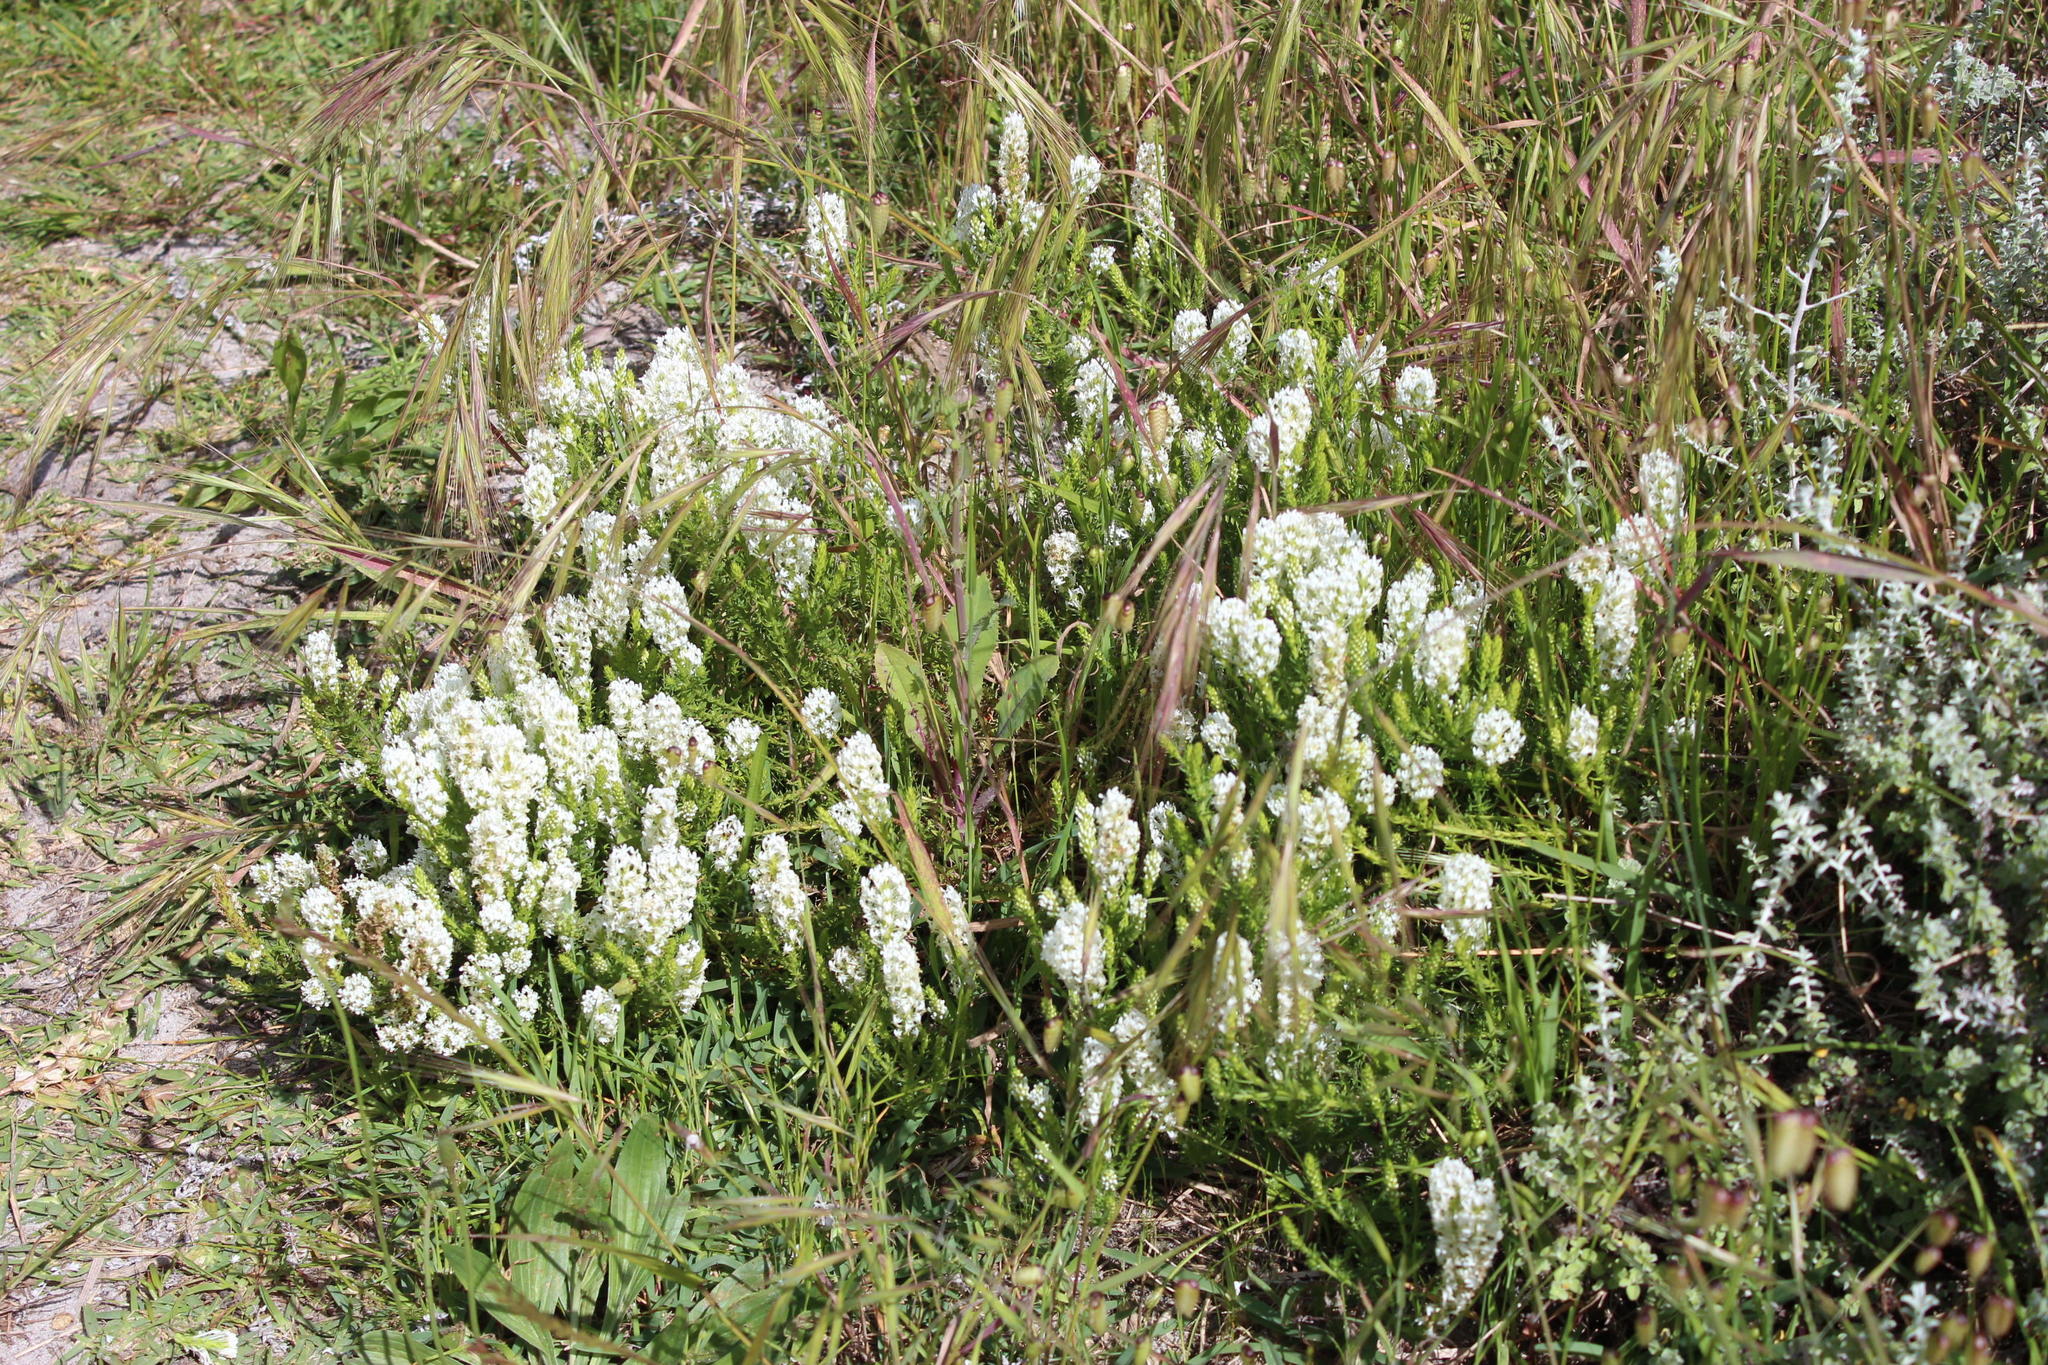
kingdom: Plantae
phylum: Tracheophyta
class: Magnoliopsida
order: Lamiales
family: Scrophulariaceae
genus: Dischisma
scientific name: Dischisma ciliatum
